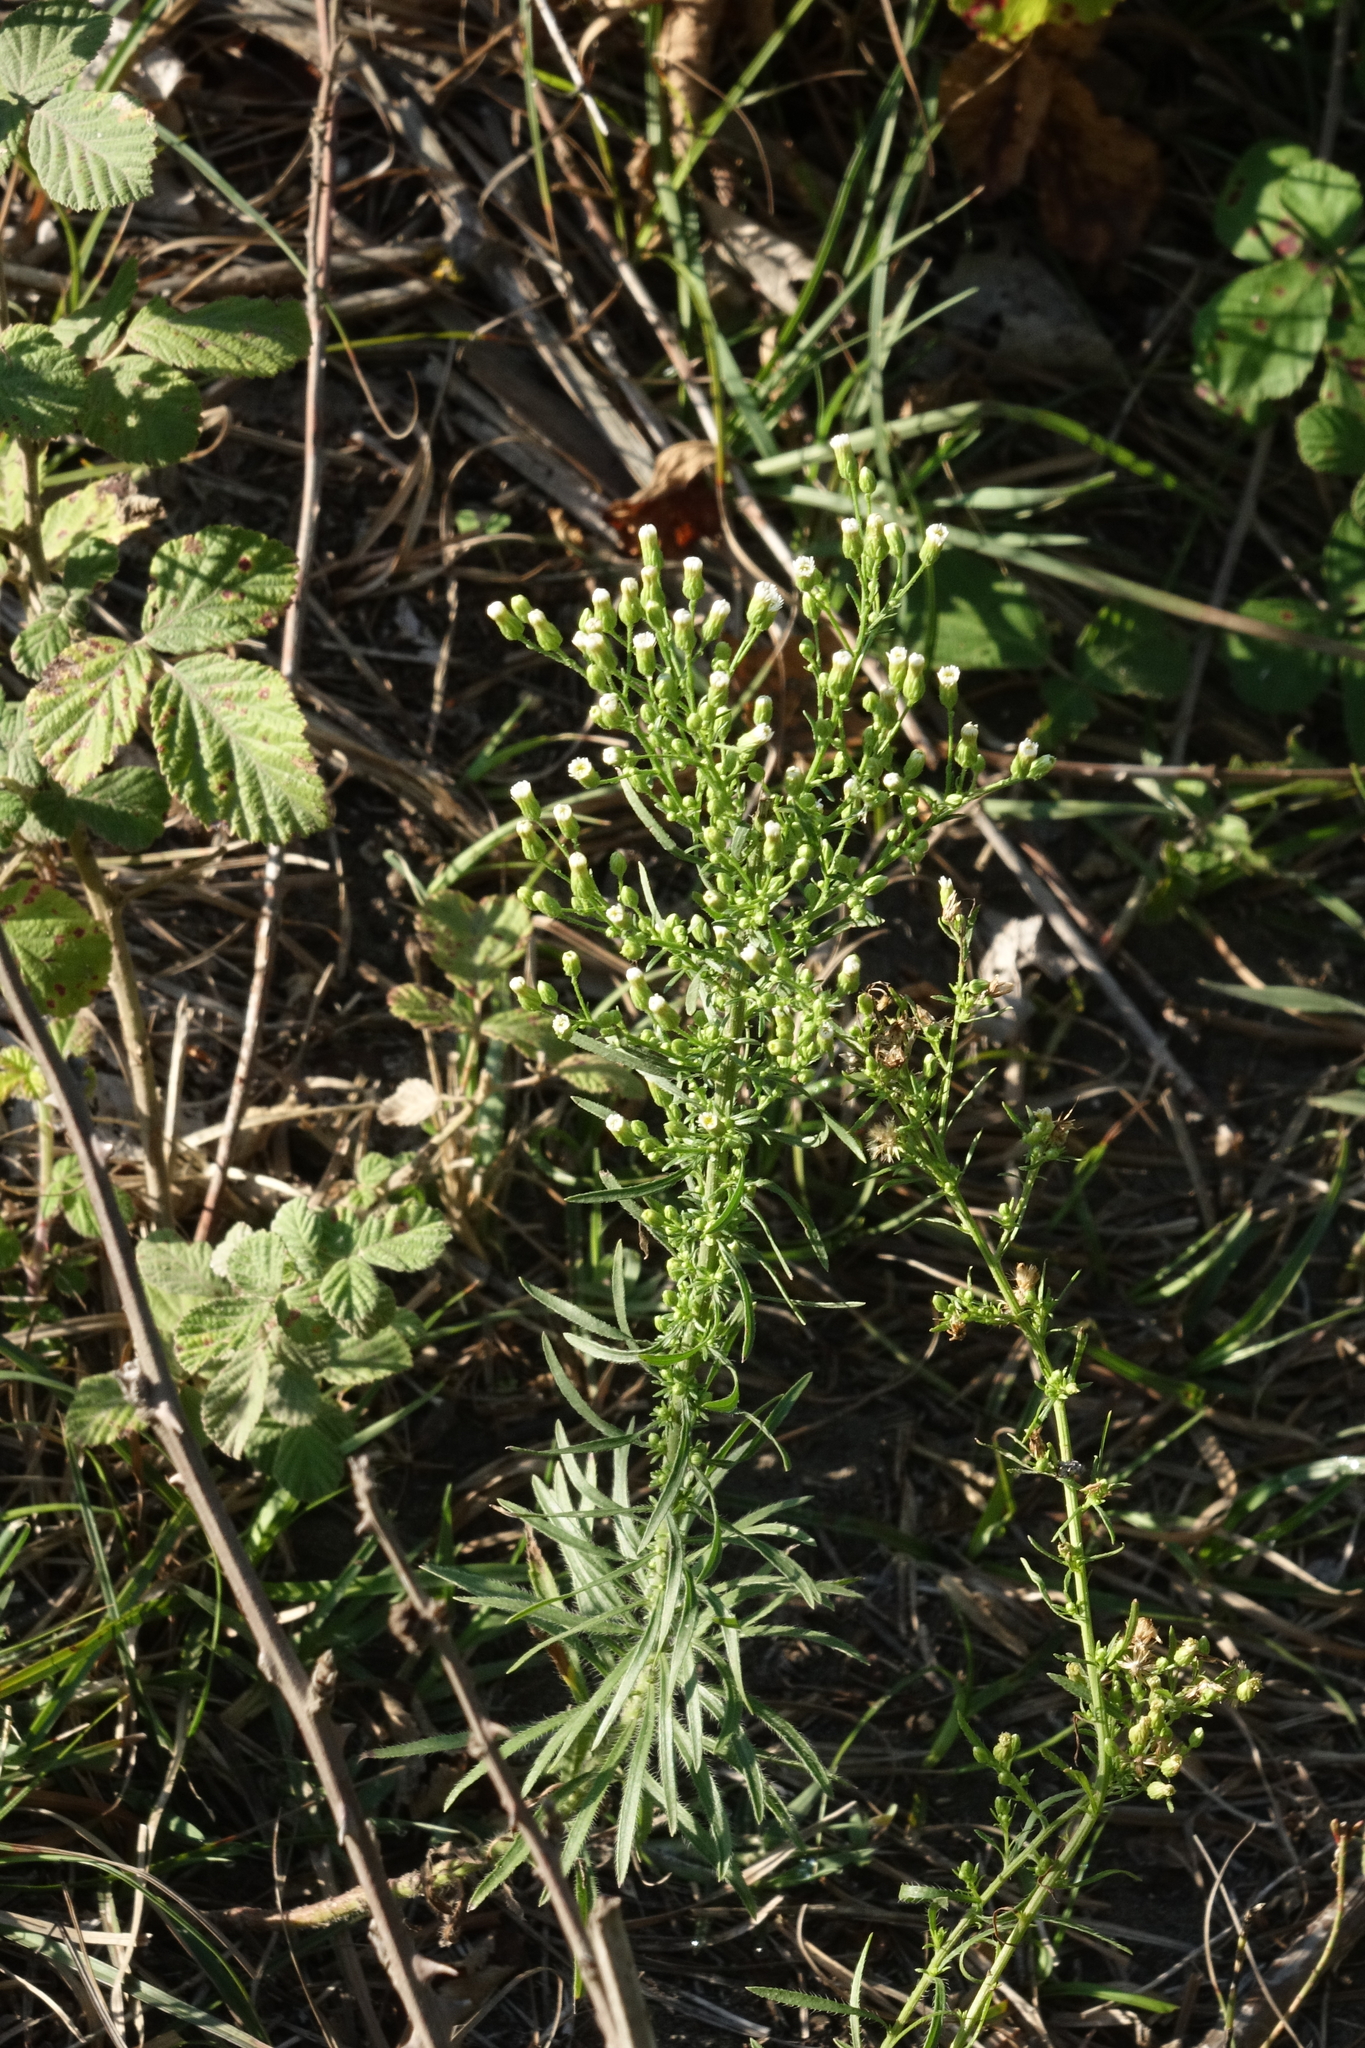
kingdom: Plantae
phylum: Tracheophyta
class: Magnoliopsida
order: Asterales
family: Asteraceae
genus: Erigeron
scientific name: Erigeron canadensis
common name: Canadian fleabane
